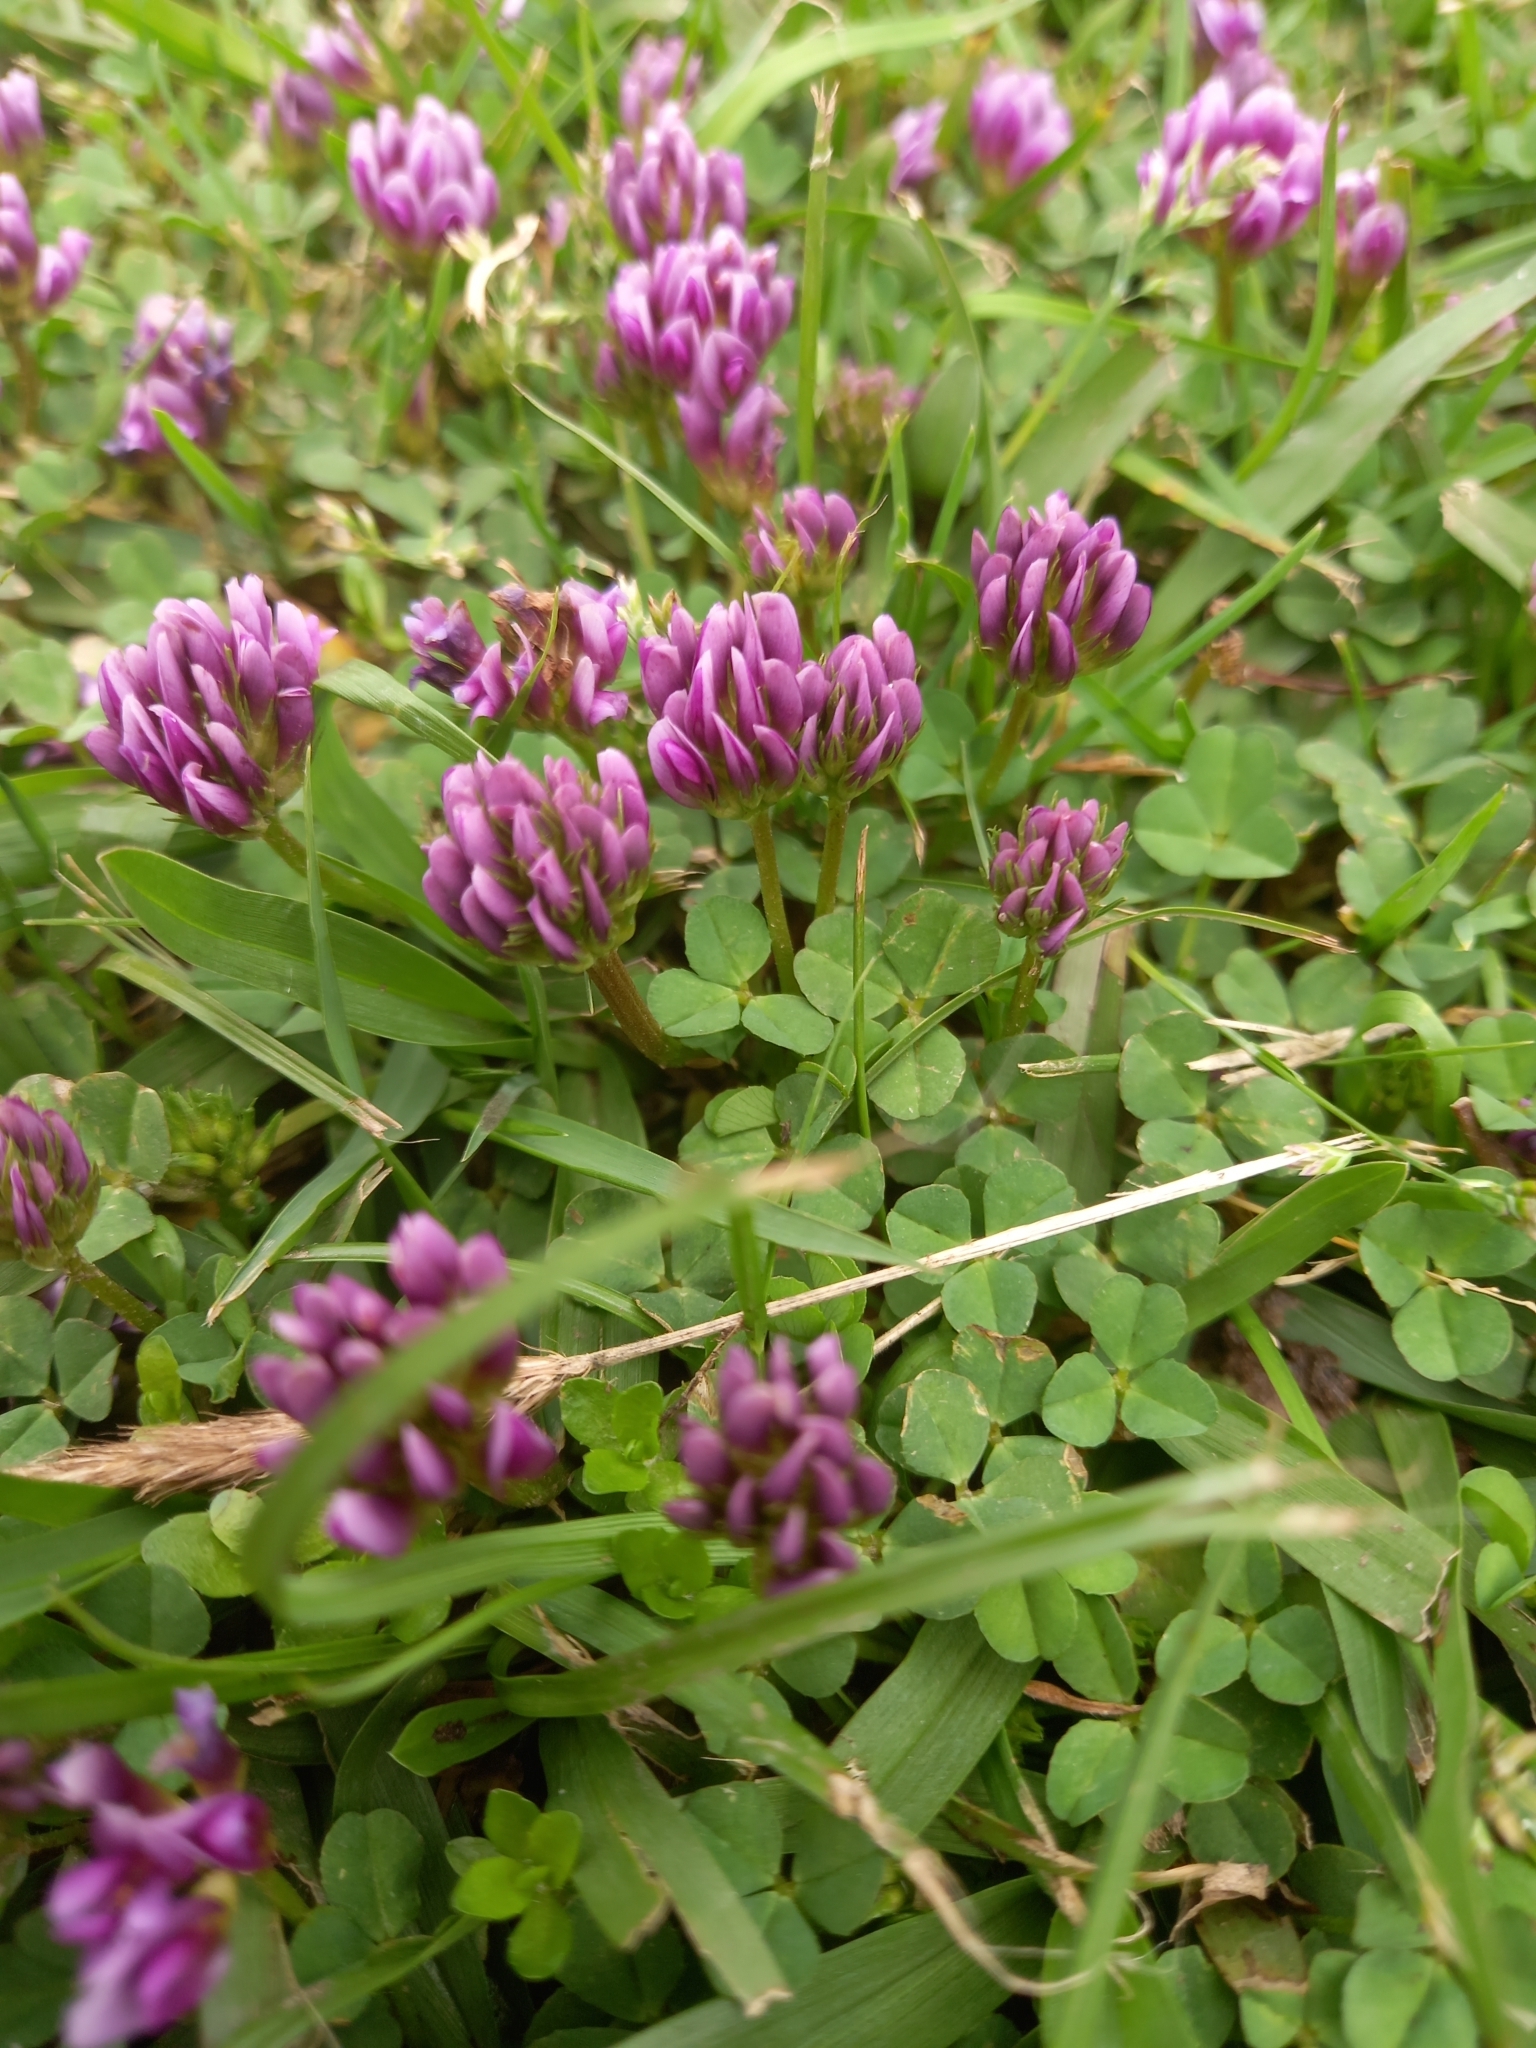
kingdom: Plantae
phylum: Tracheophyta
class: Magnoliopsida
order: Fabales
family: Fabaceae
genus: Trifolium
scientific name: Trifolium burchellianum
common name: Burchell's clover
